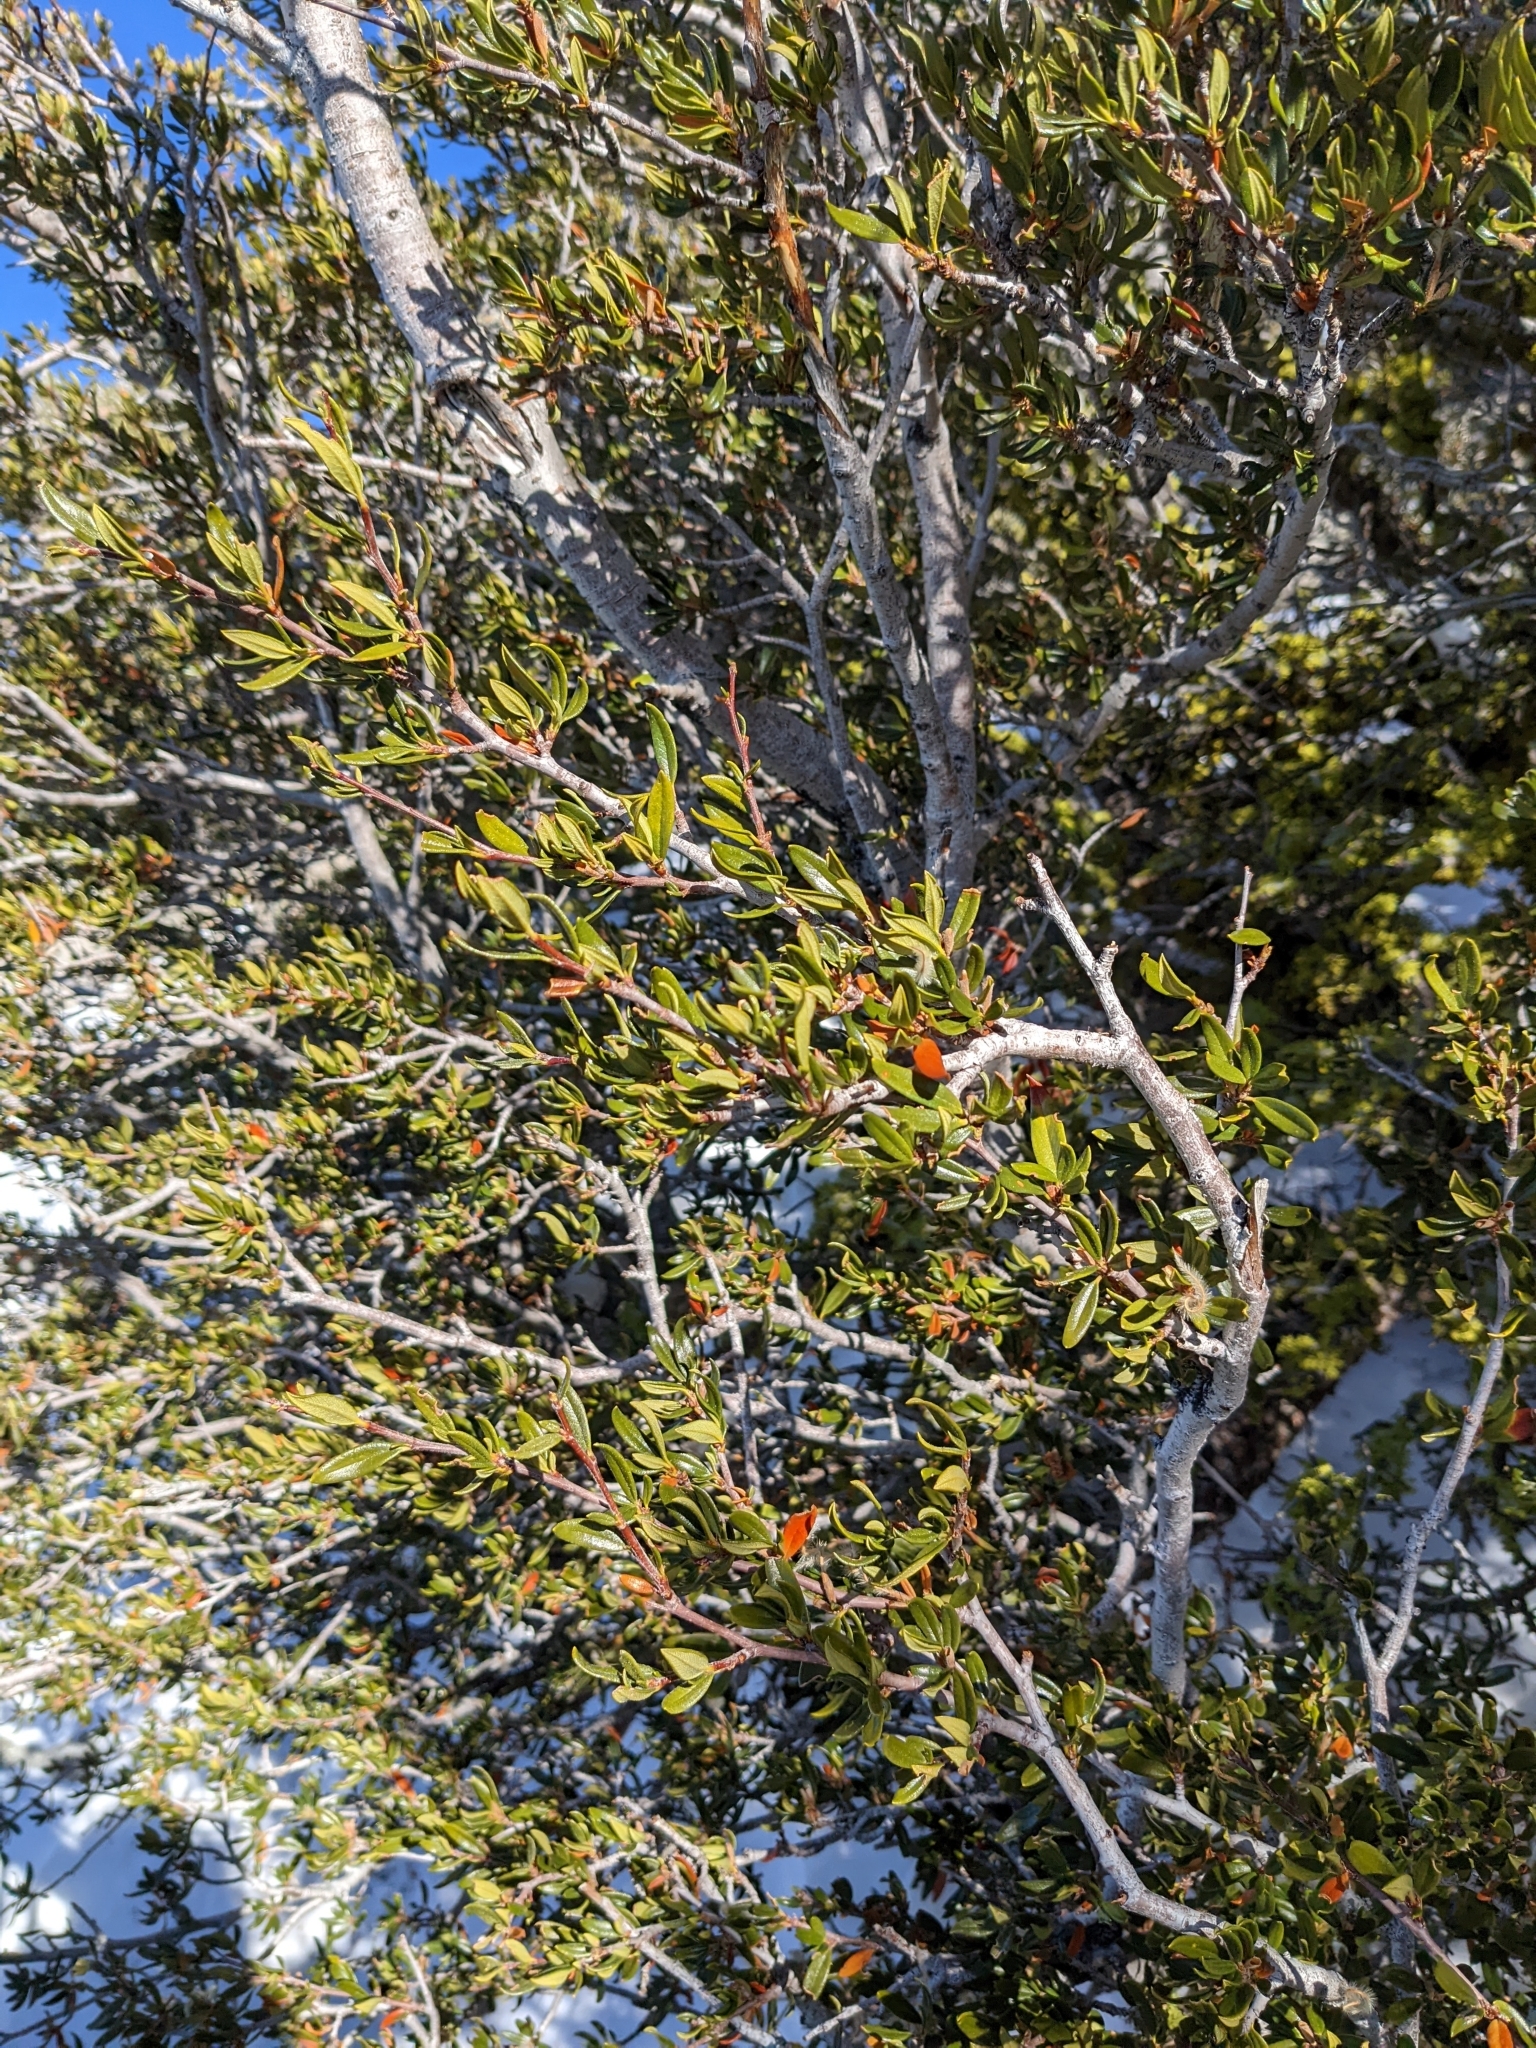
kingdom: Plantae
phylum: Tracheophyta
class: Magnoliopsida
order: Rosales
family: Rosaceae
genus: Cercocarpus
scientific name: Cercocarpus ledifolius
